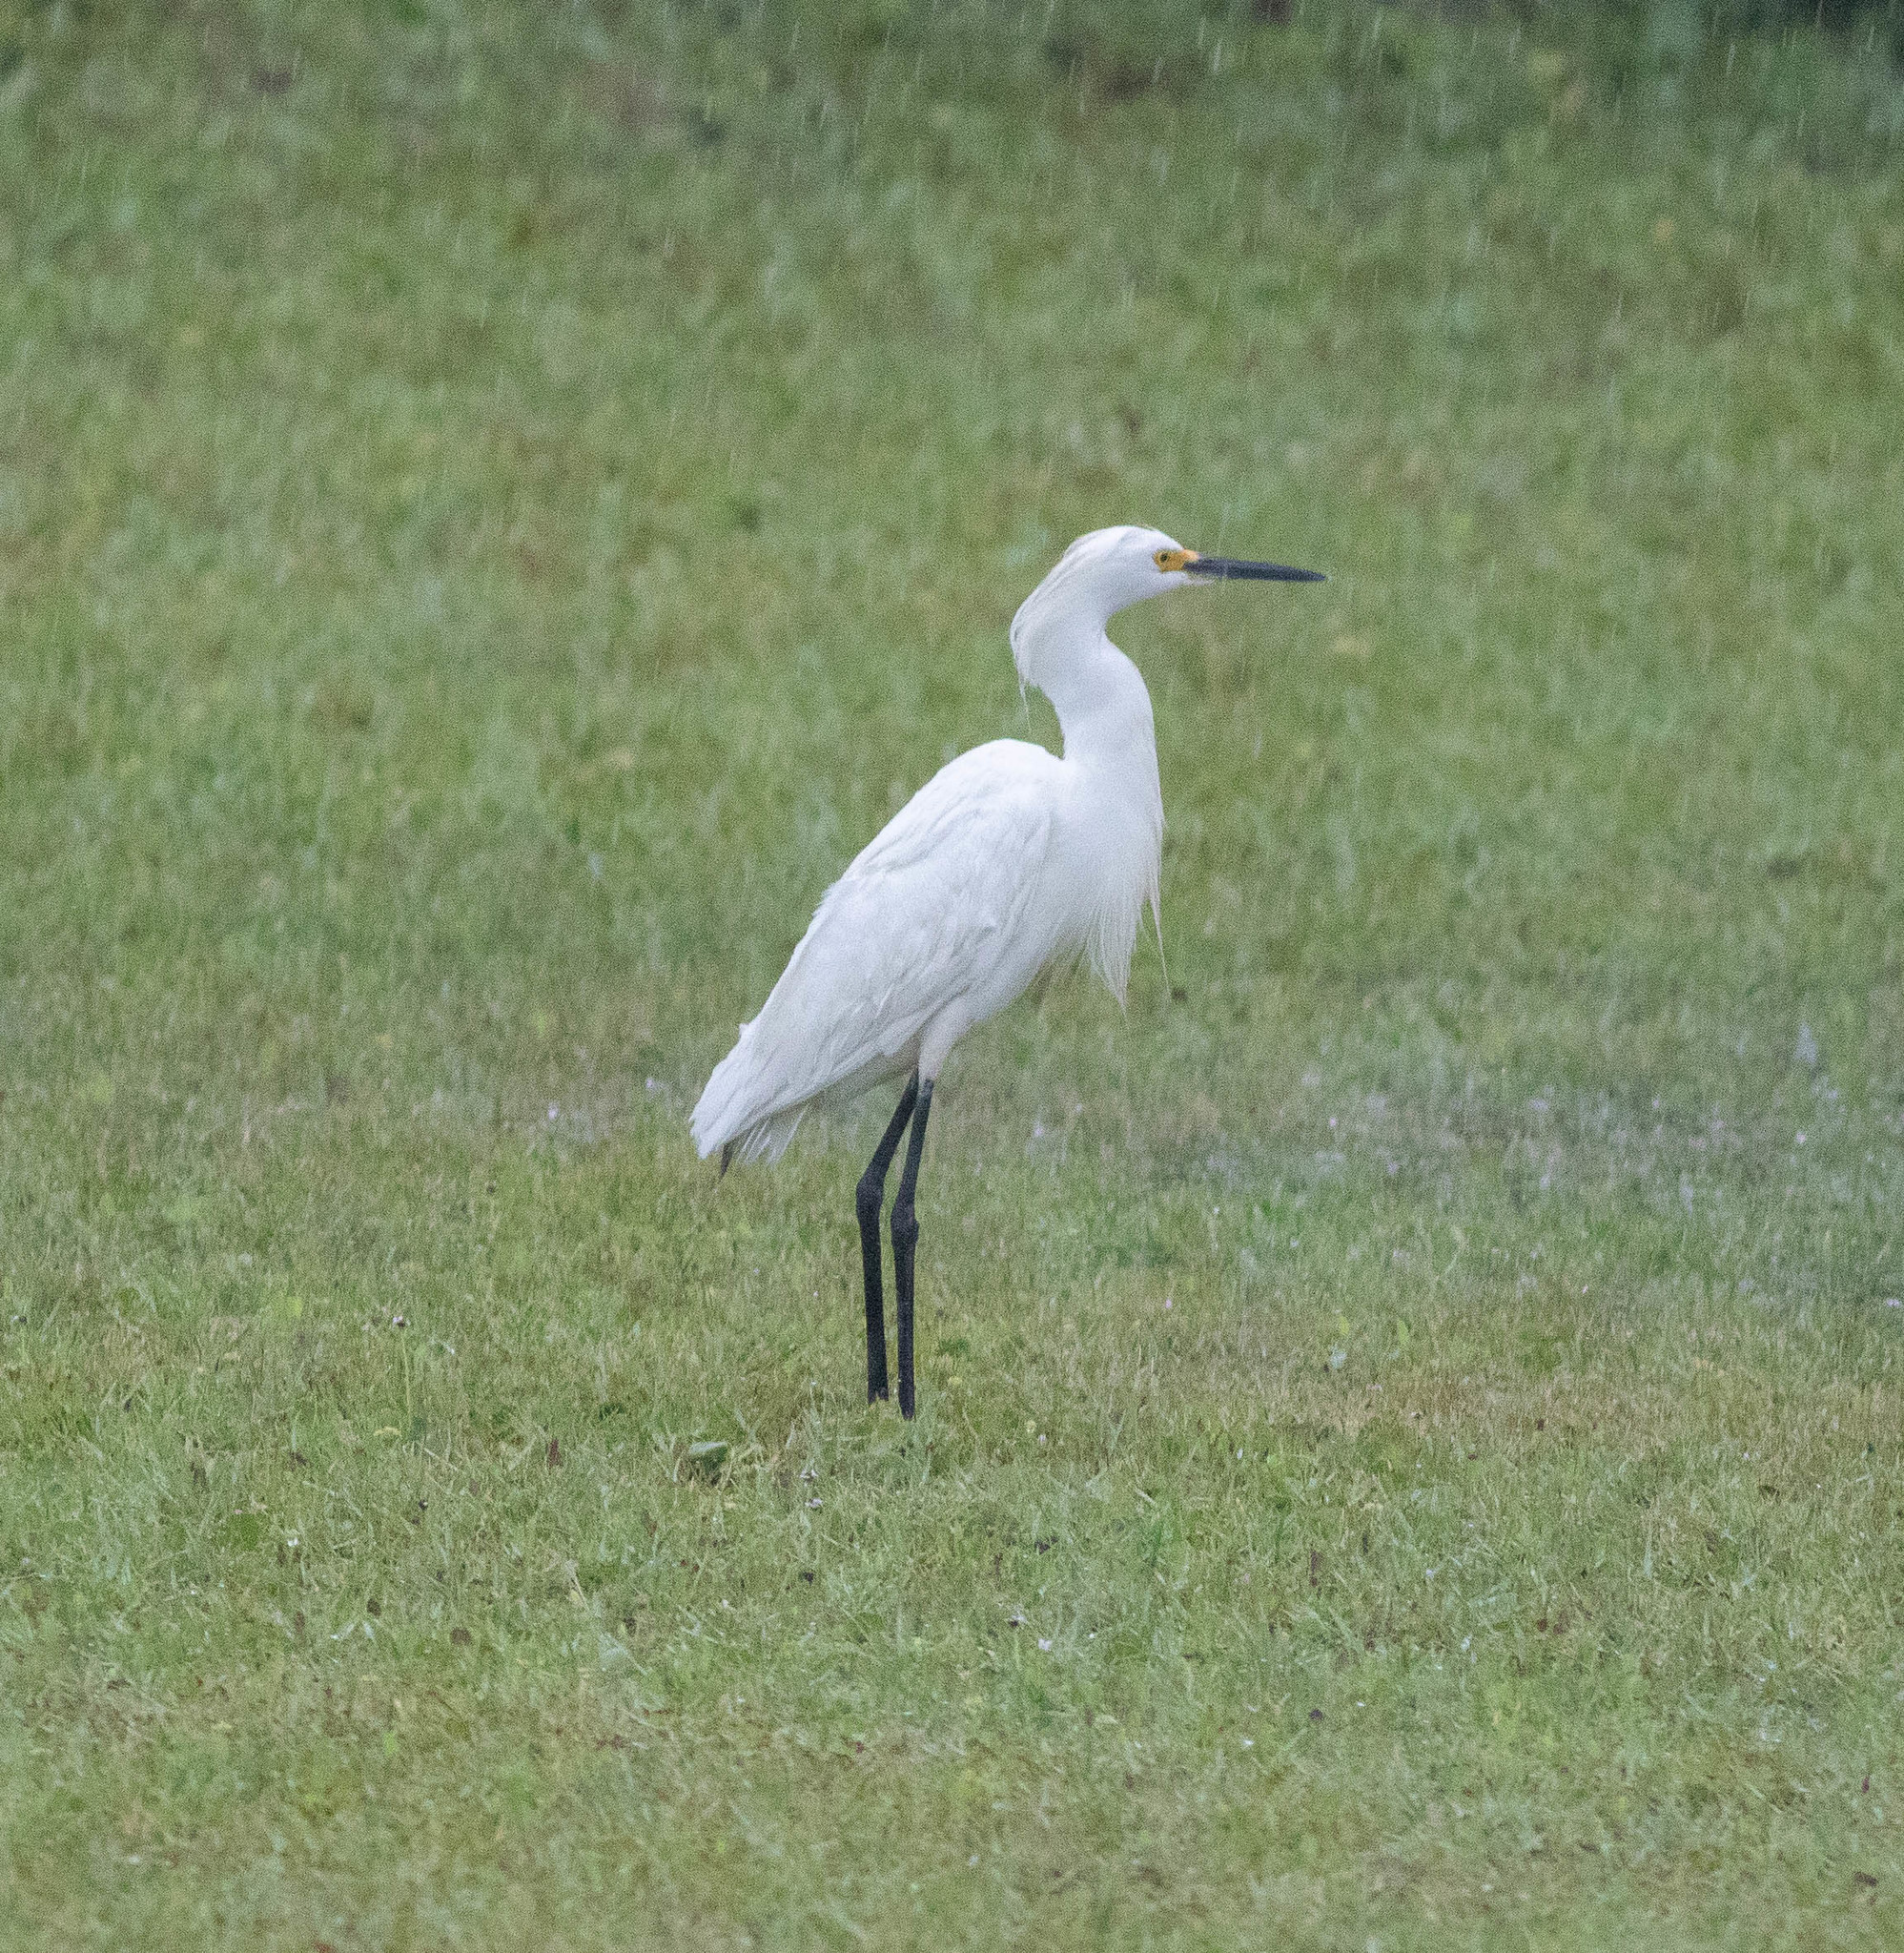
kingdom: Animalia
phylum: Chordata
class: Aves
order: Pelecaniformes
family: Ardeidae
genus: Egretta
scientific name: Egretta thula
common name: Snowy egret
